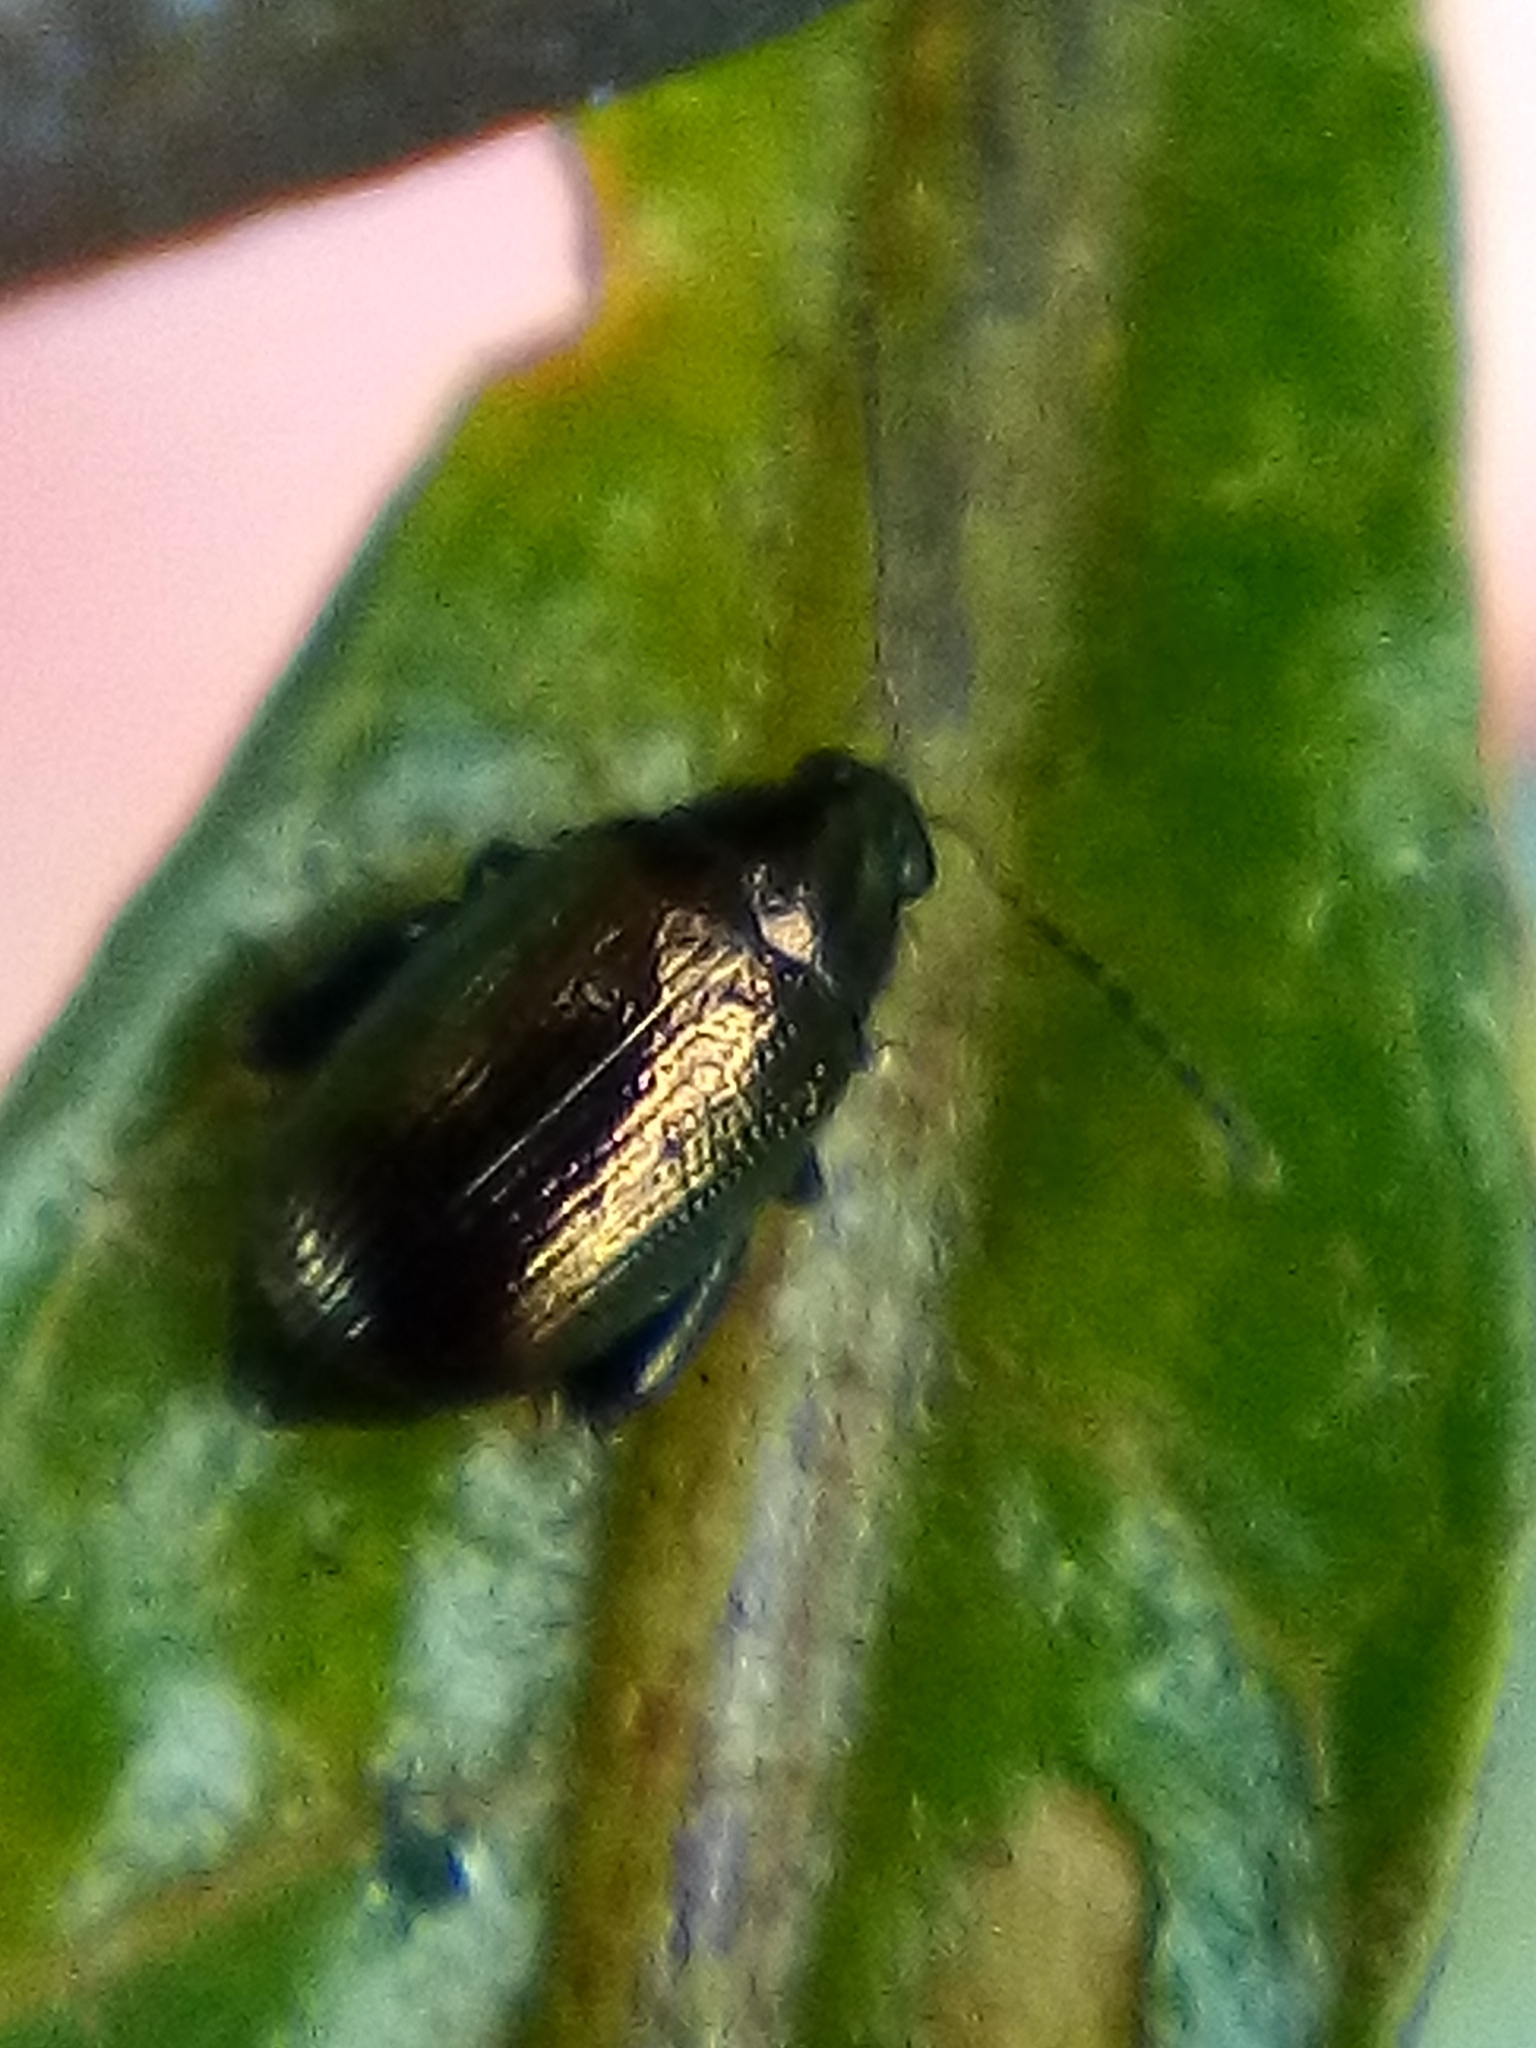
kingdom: Animalia
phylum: Arthropoda
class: Insecta
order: Coleoptera
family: Chrysomelidae
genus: Psylliodes
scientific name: Psylliodes brettinghami
